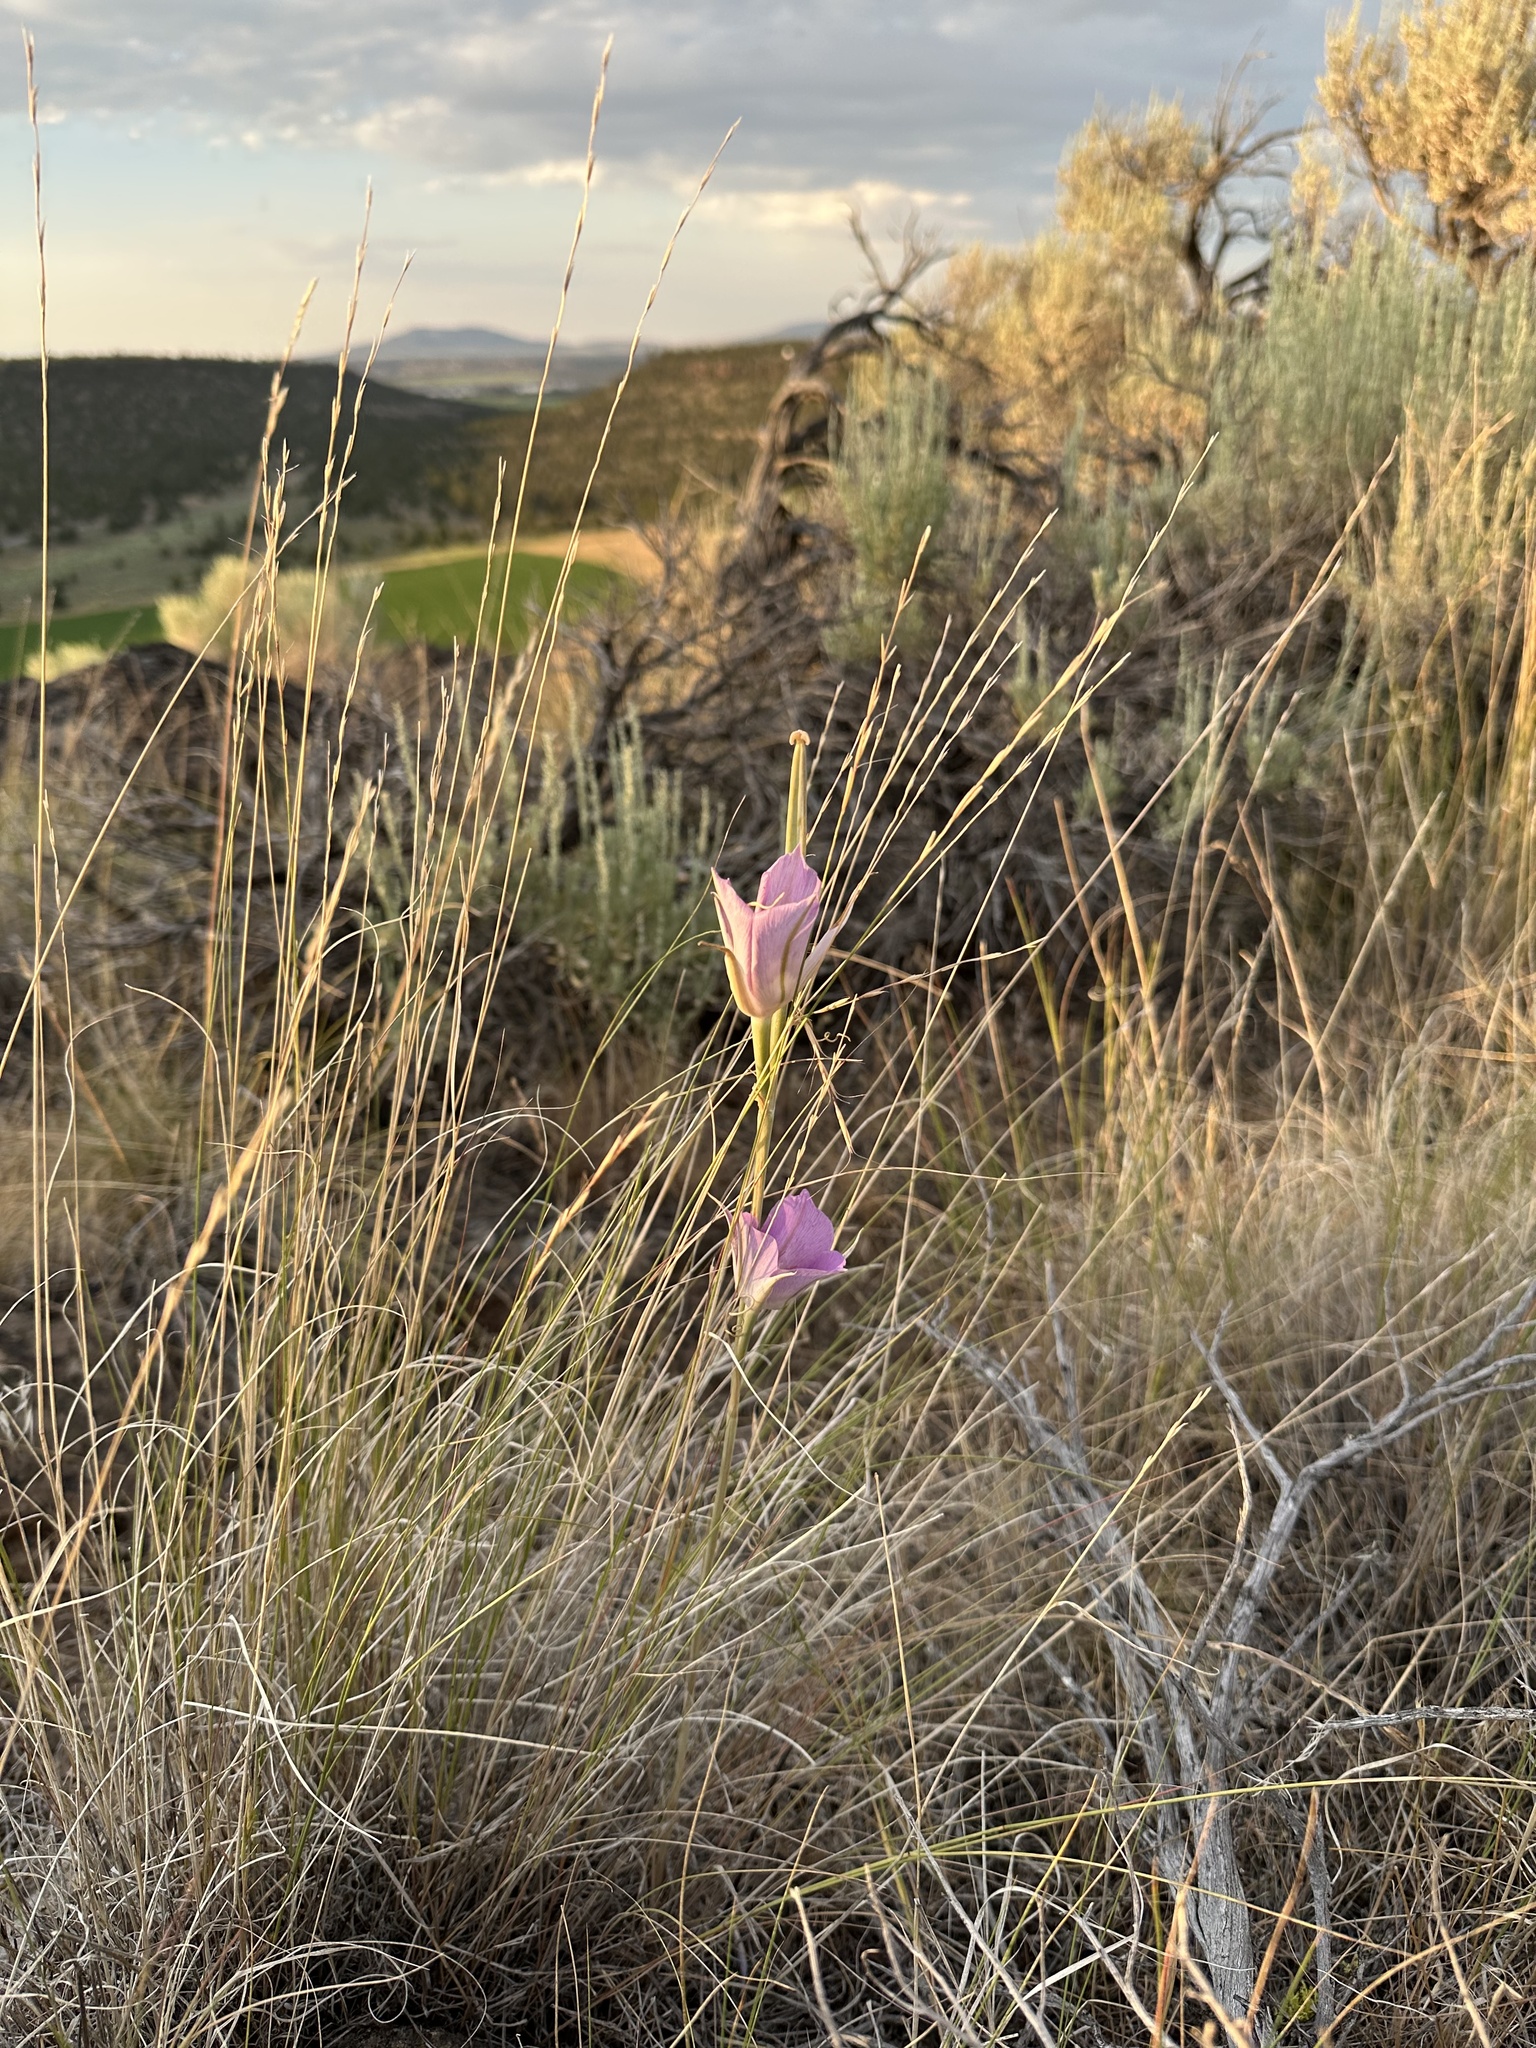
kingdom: Plantae
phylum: Tracheophyta
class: Liliopsida
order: Liliales
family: Liliaceae
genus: Calochortus
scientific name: Calochortus macrocarpus
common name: Green-band mariposa lily
